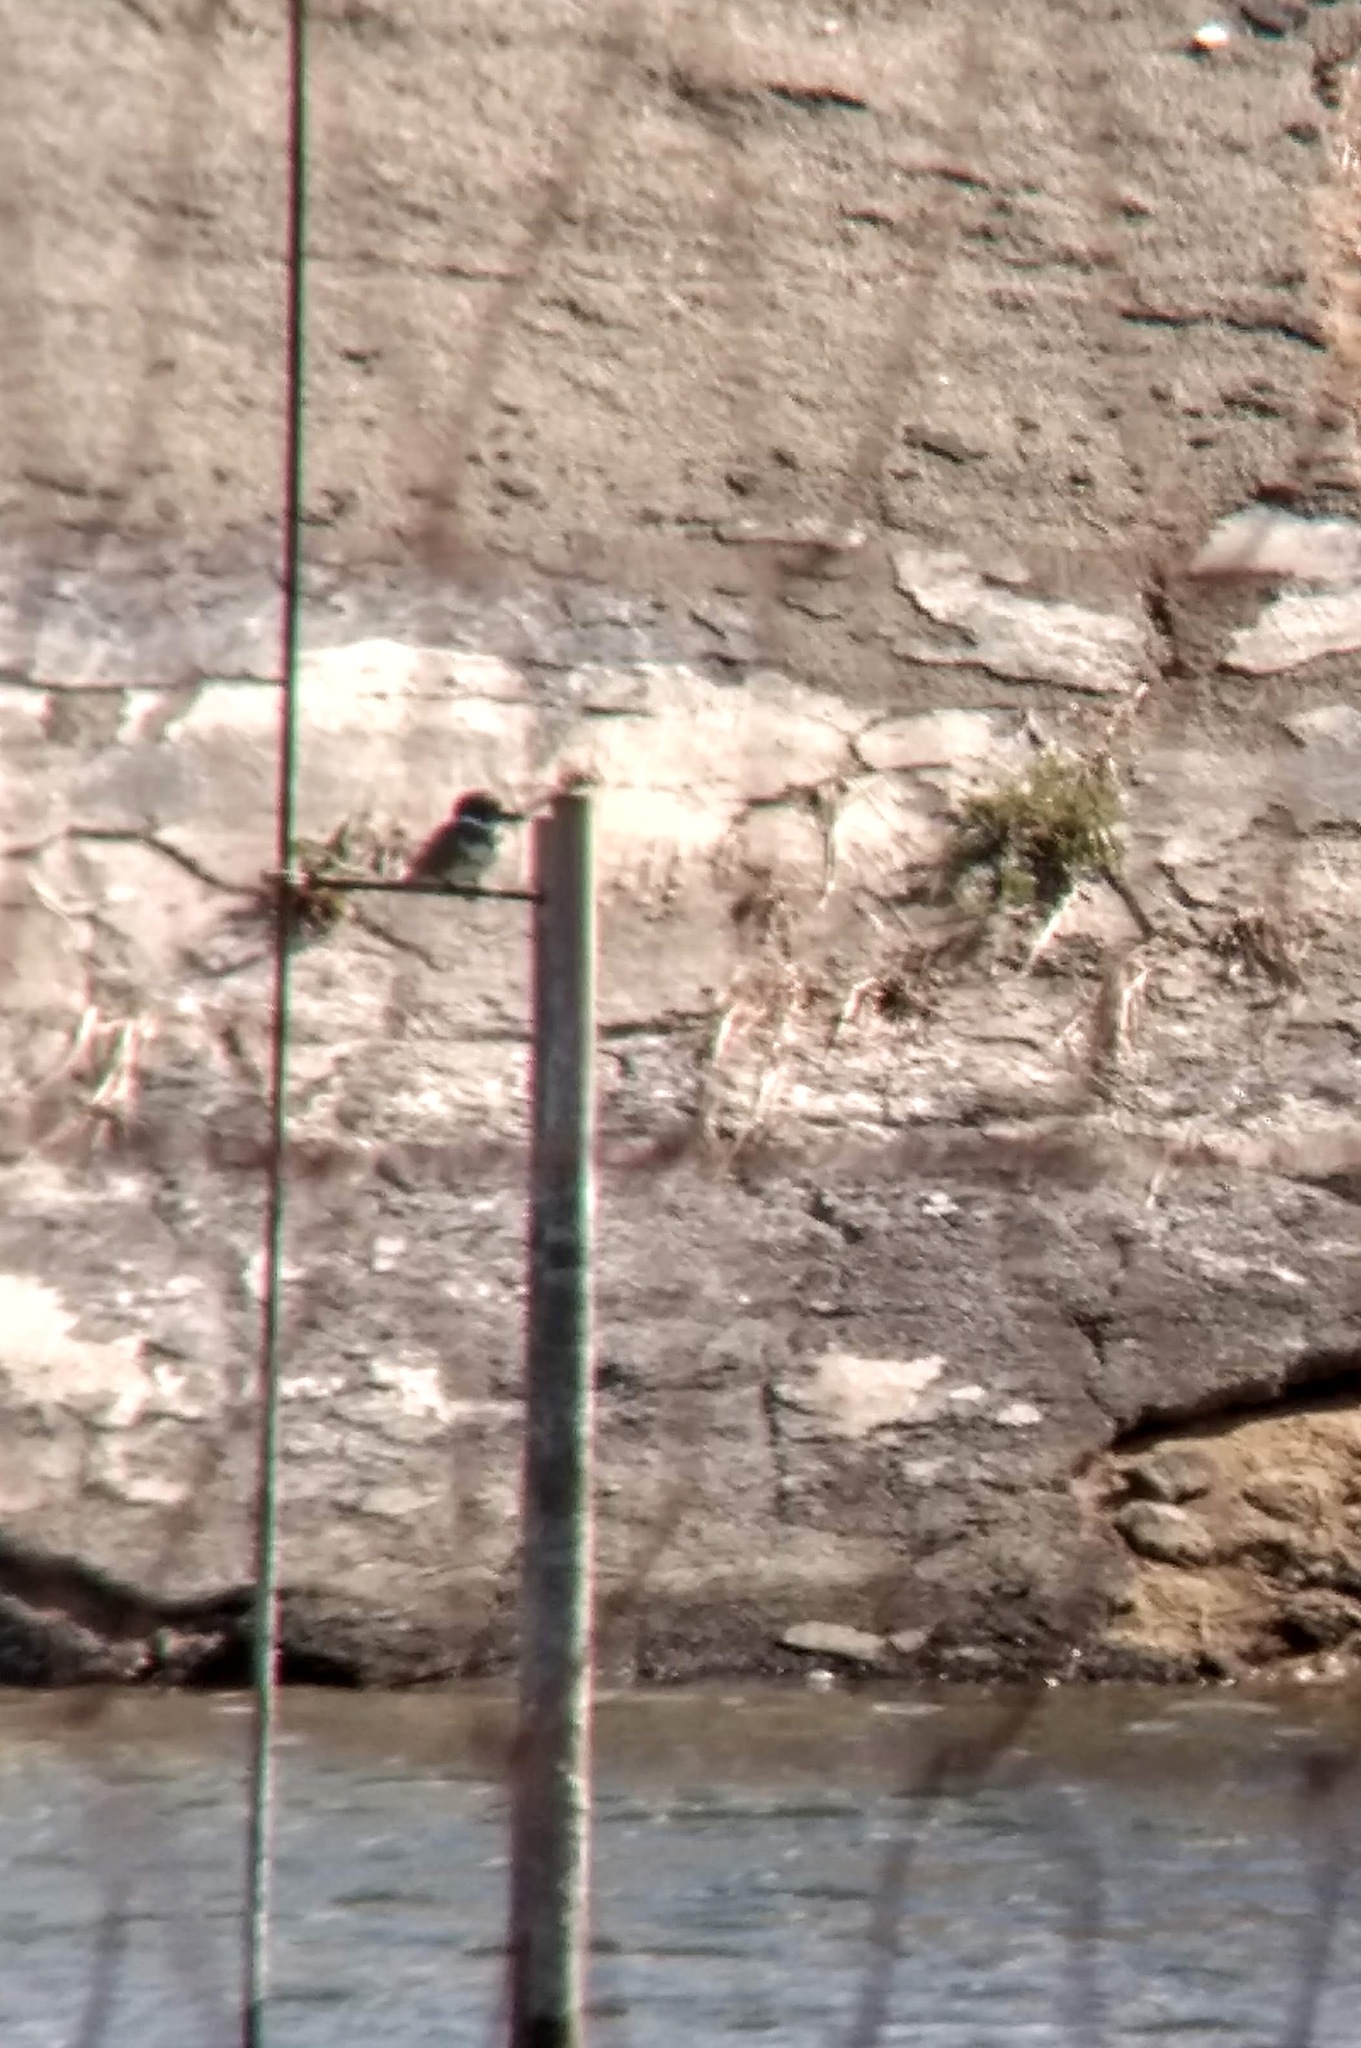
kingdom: Animalia
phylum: Chordata
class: Aves
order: Coraciiformes
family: Alcedinidae
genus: Megaceryle
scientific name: Megaceryle alcyon
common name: Belted kingfisher
